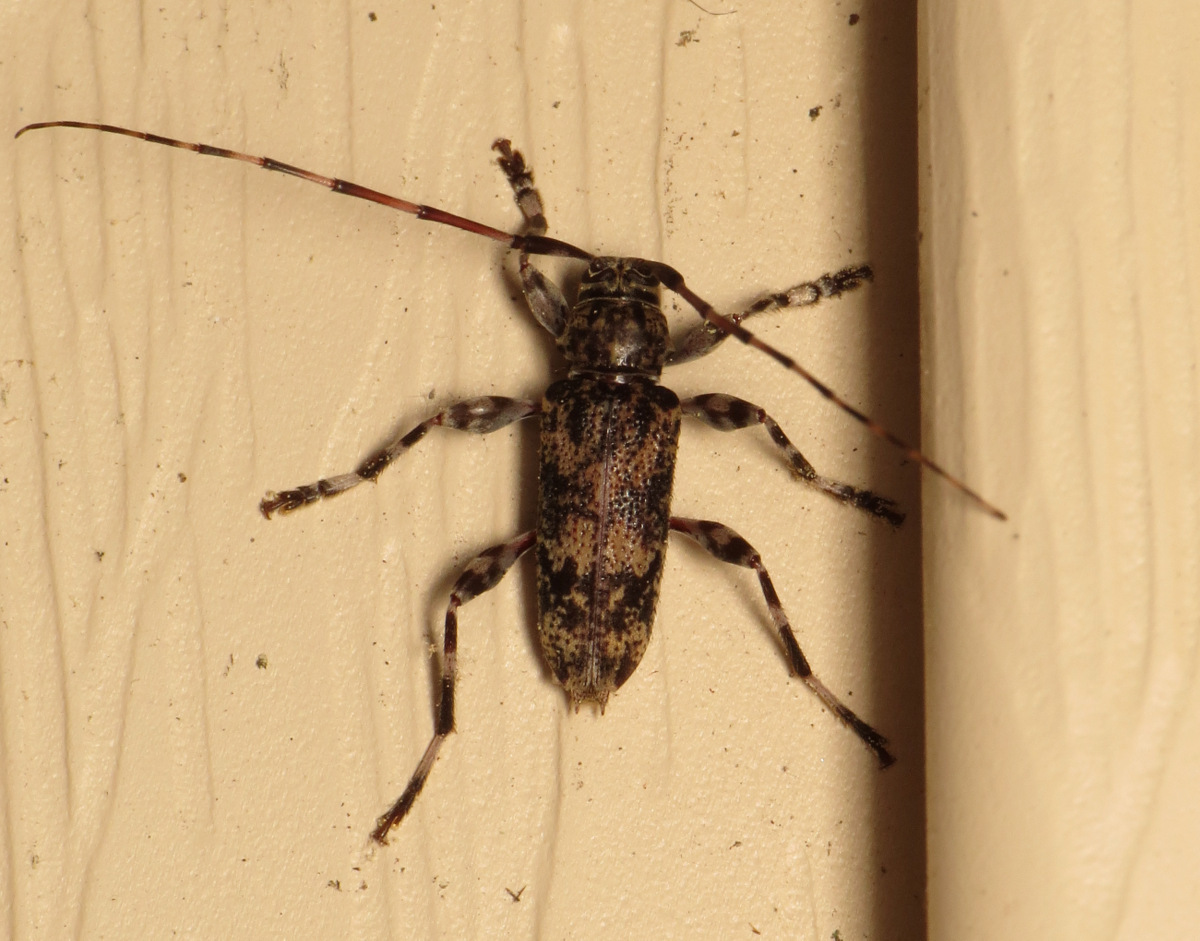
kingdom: Animalia
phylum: Arthropoda
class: Insecta
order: Coleoptera
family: Cerambycidae
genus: Graphisurus
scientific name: Graphisurus fasciatus
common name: Banded graphisurus
